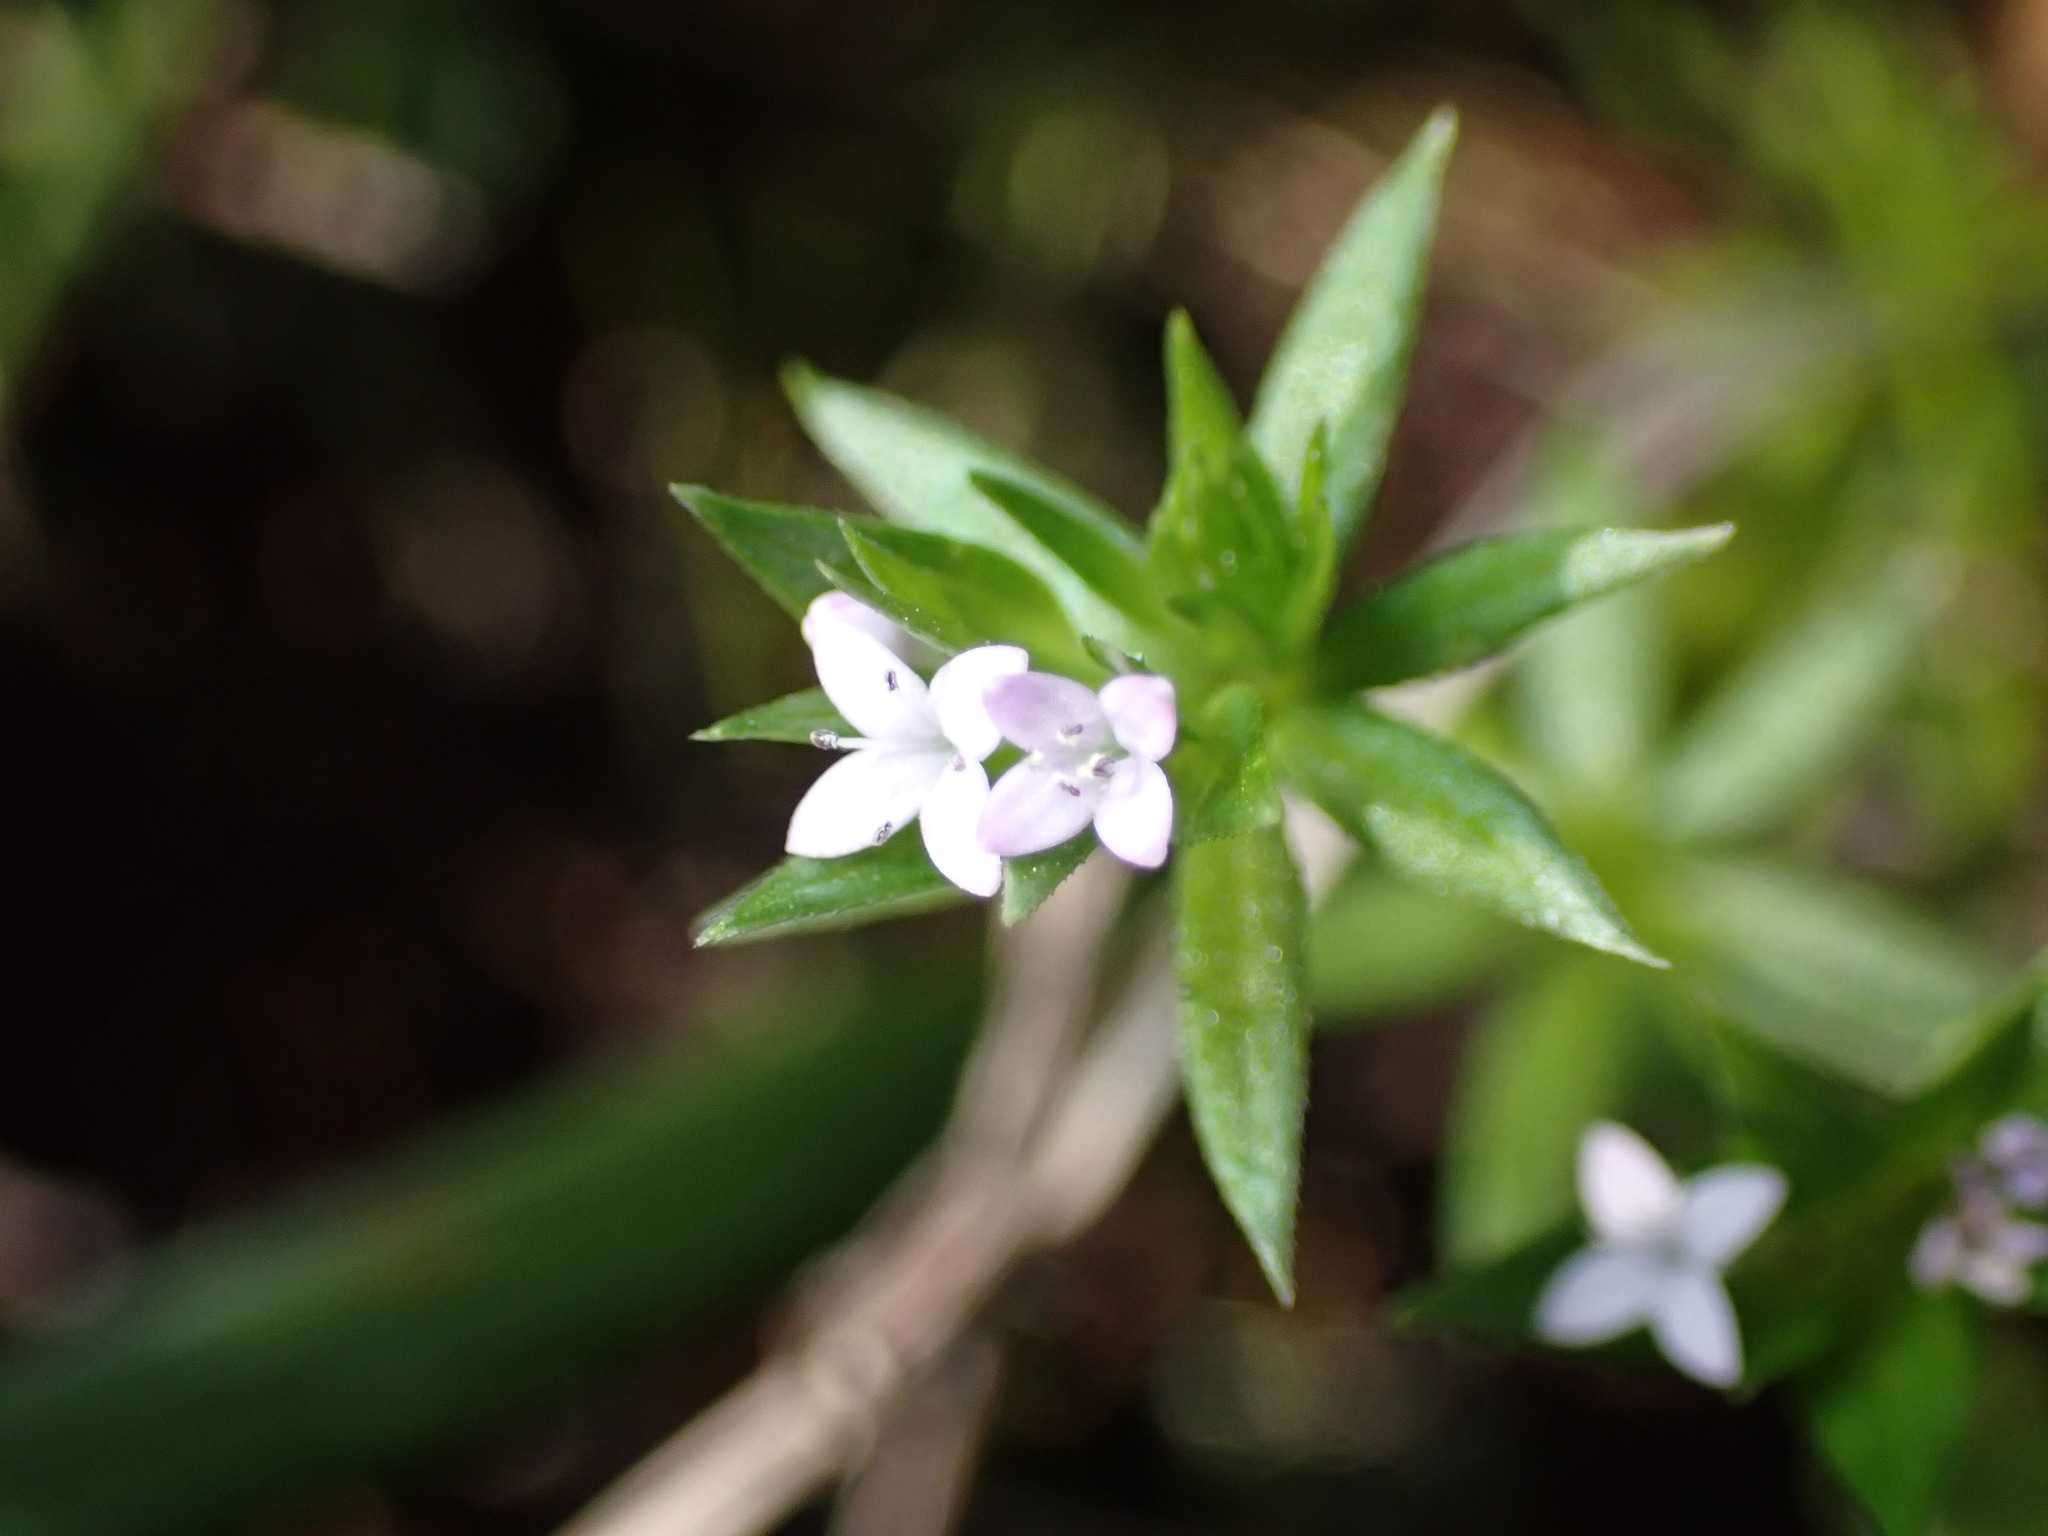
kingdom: Plantae
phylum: Tracheophyta
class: Magnoliopsida
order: Gentianales
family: Rubiaceae
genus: Sherardia
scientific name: Sherardia arvensis
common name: Field madder
